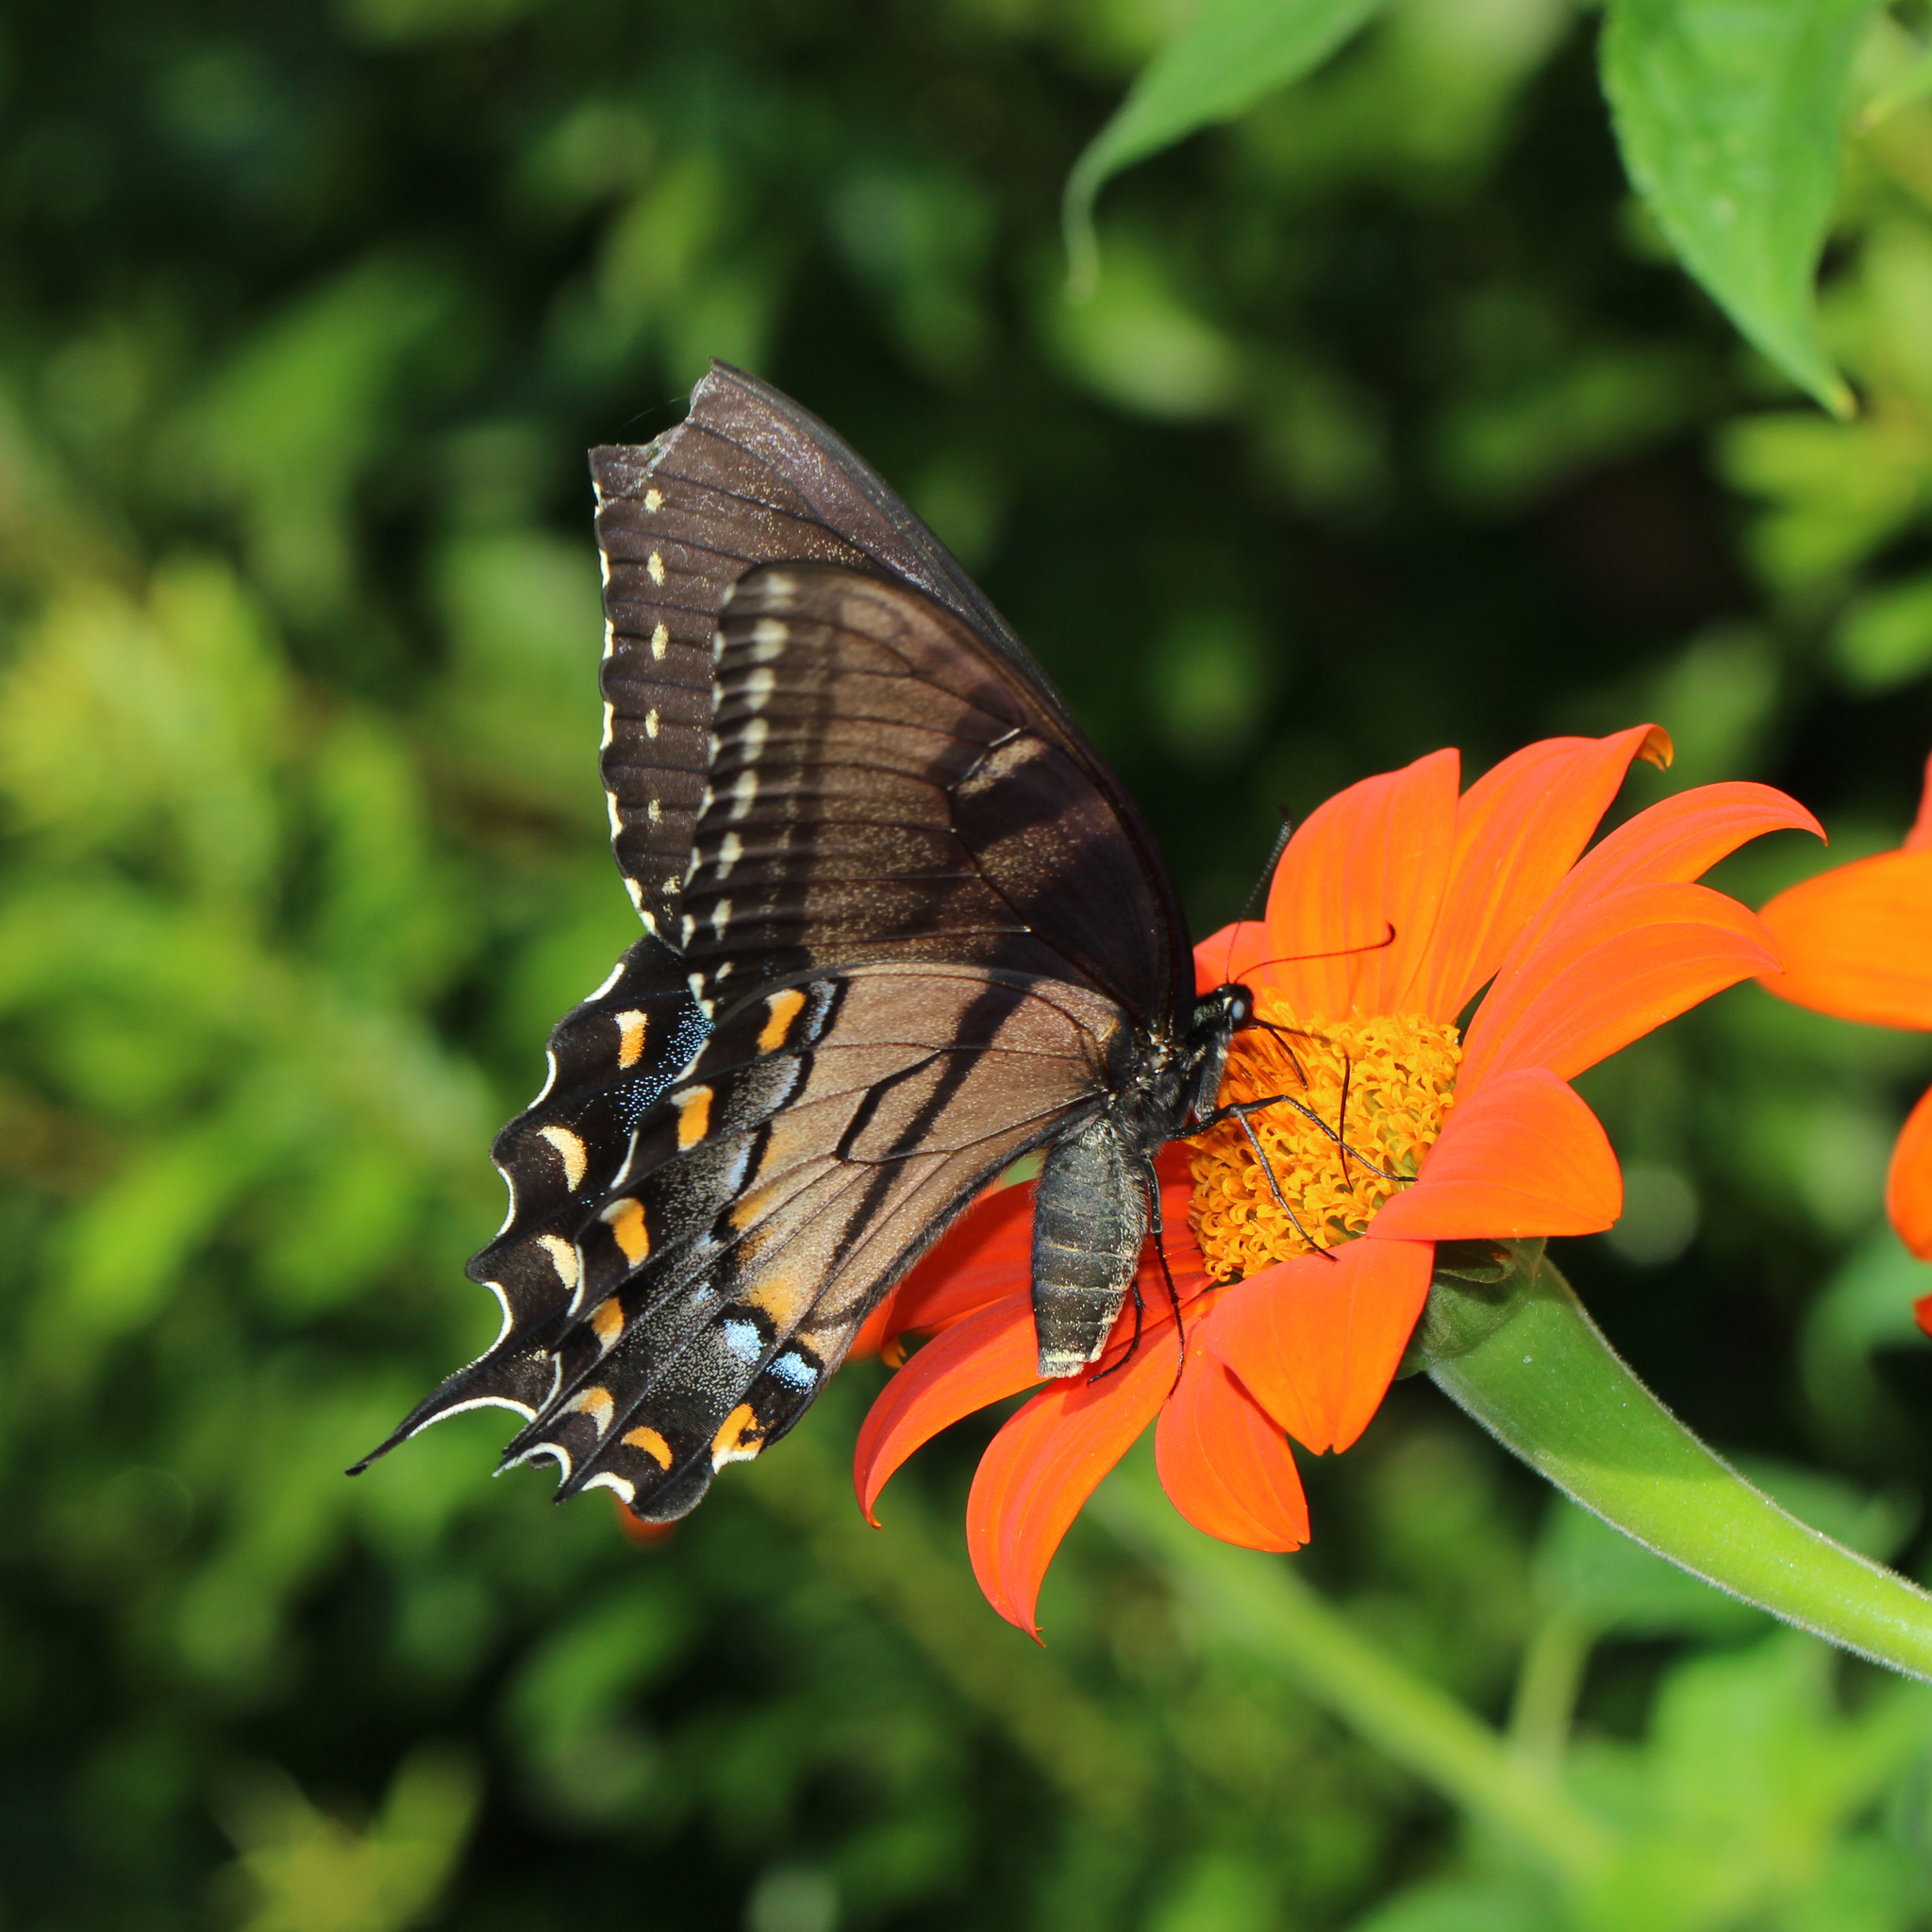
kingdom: Animalia
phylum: Arthropoda
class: Insecta
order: Lepidoptera
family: Papilionidae
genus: Papilio
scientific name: Papilio glaucus
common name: Tiger swallowtail
